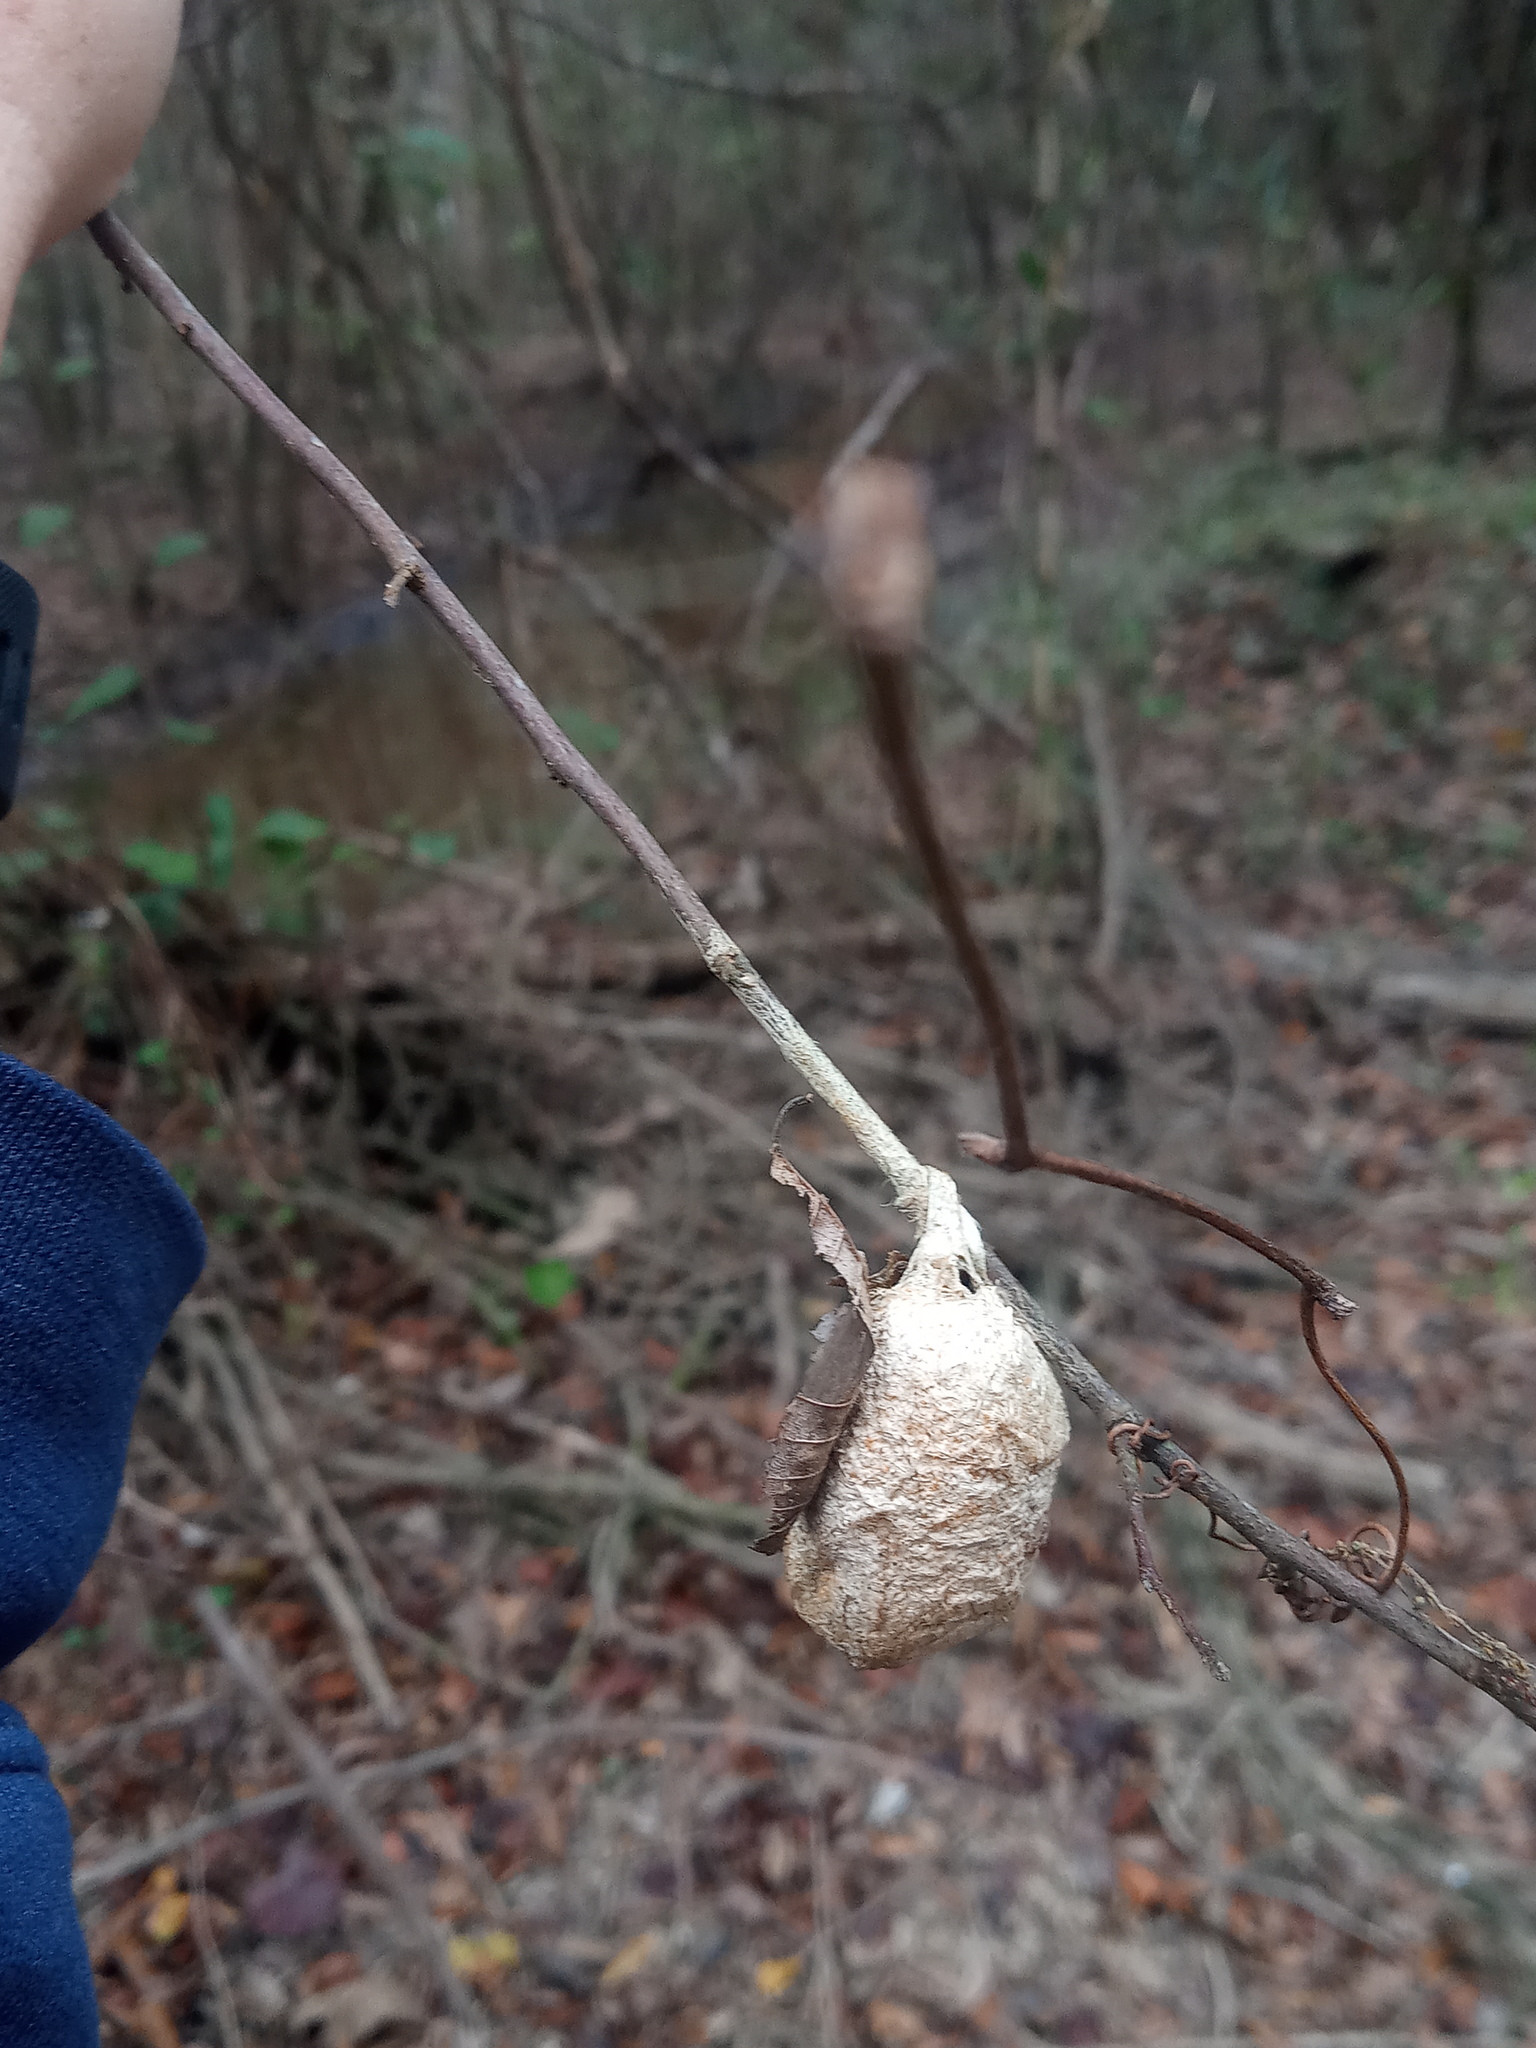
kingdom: Animalia
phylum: Arthropoda
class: Insecta
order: Lepidoptera
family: Saturniidae
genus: Antheraea
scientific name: Antheraea polyphemus
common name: Polyphemus moth
